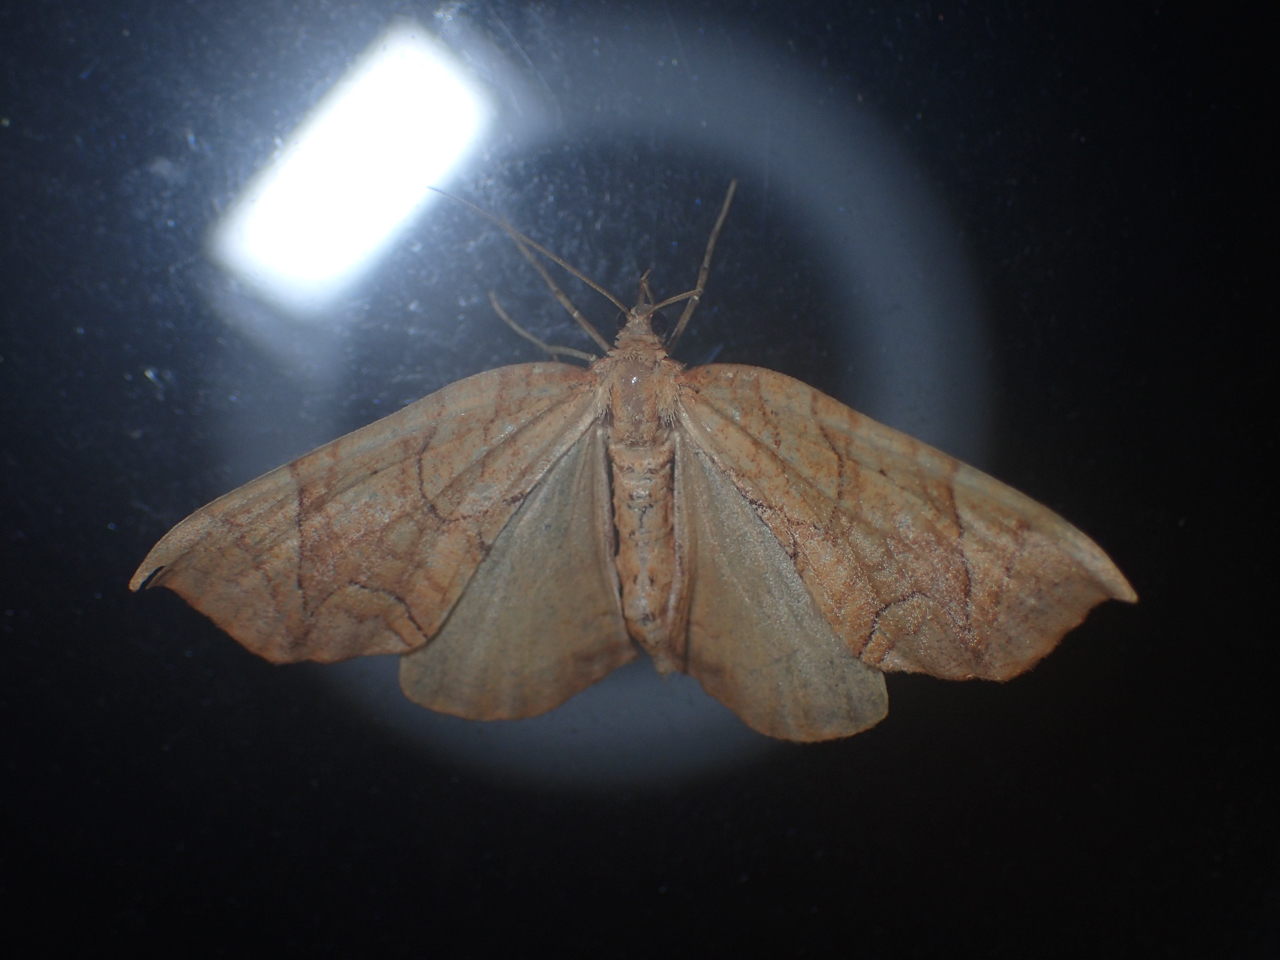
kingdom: Animalia
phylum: Arthropoda
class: Insecta
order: Lepidoptera
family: Geometridae
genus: Eulithis
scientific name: Eulithis
